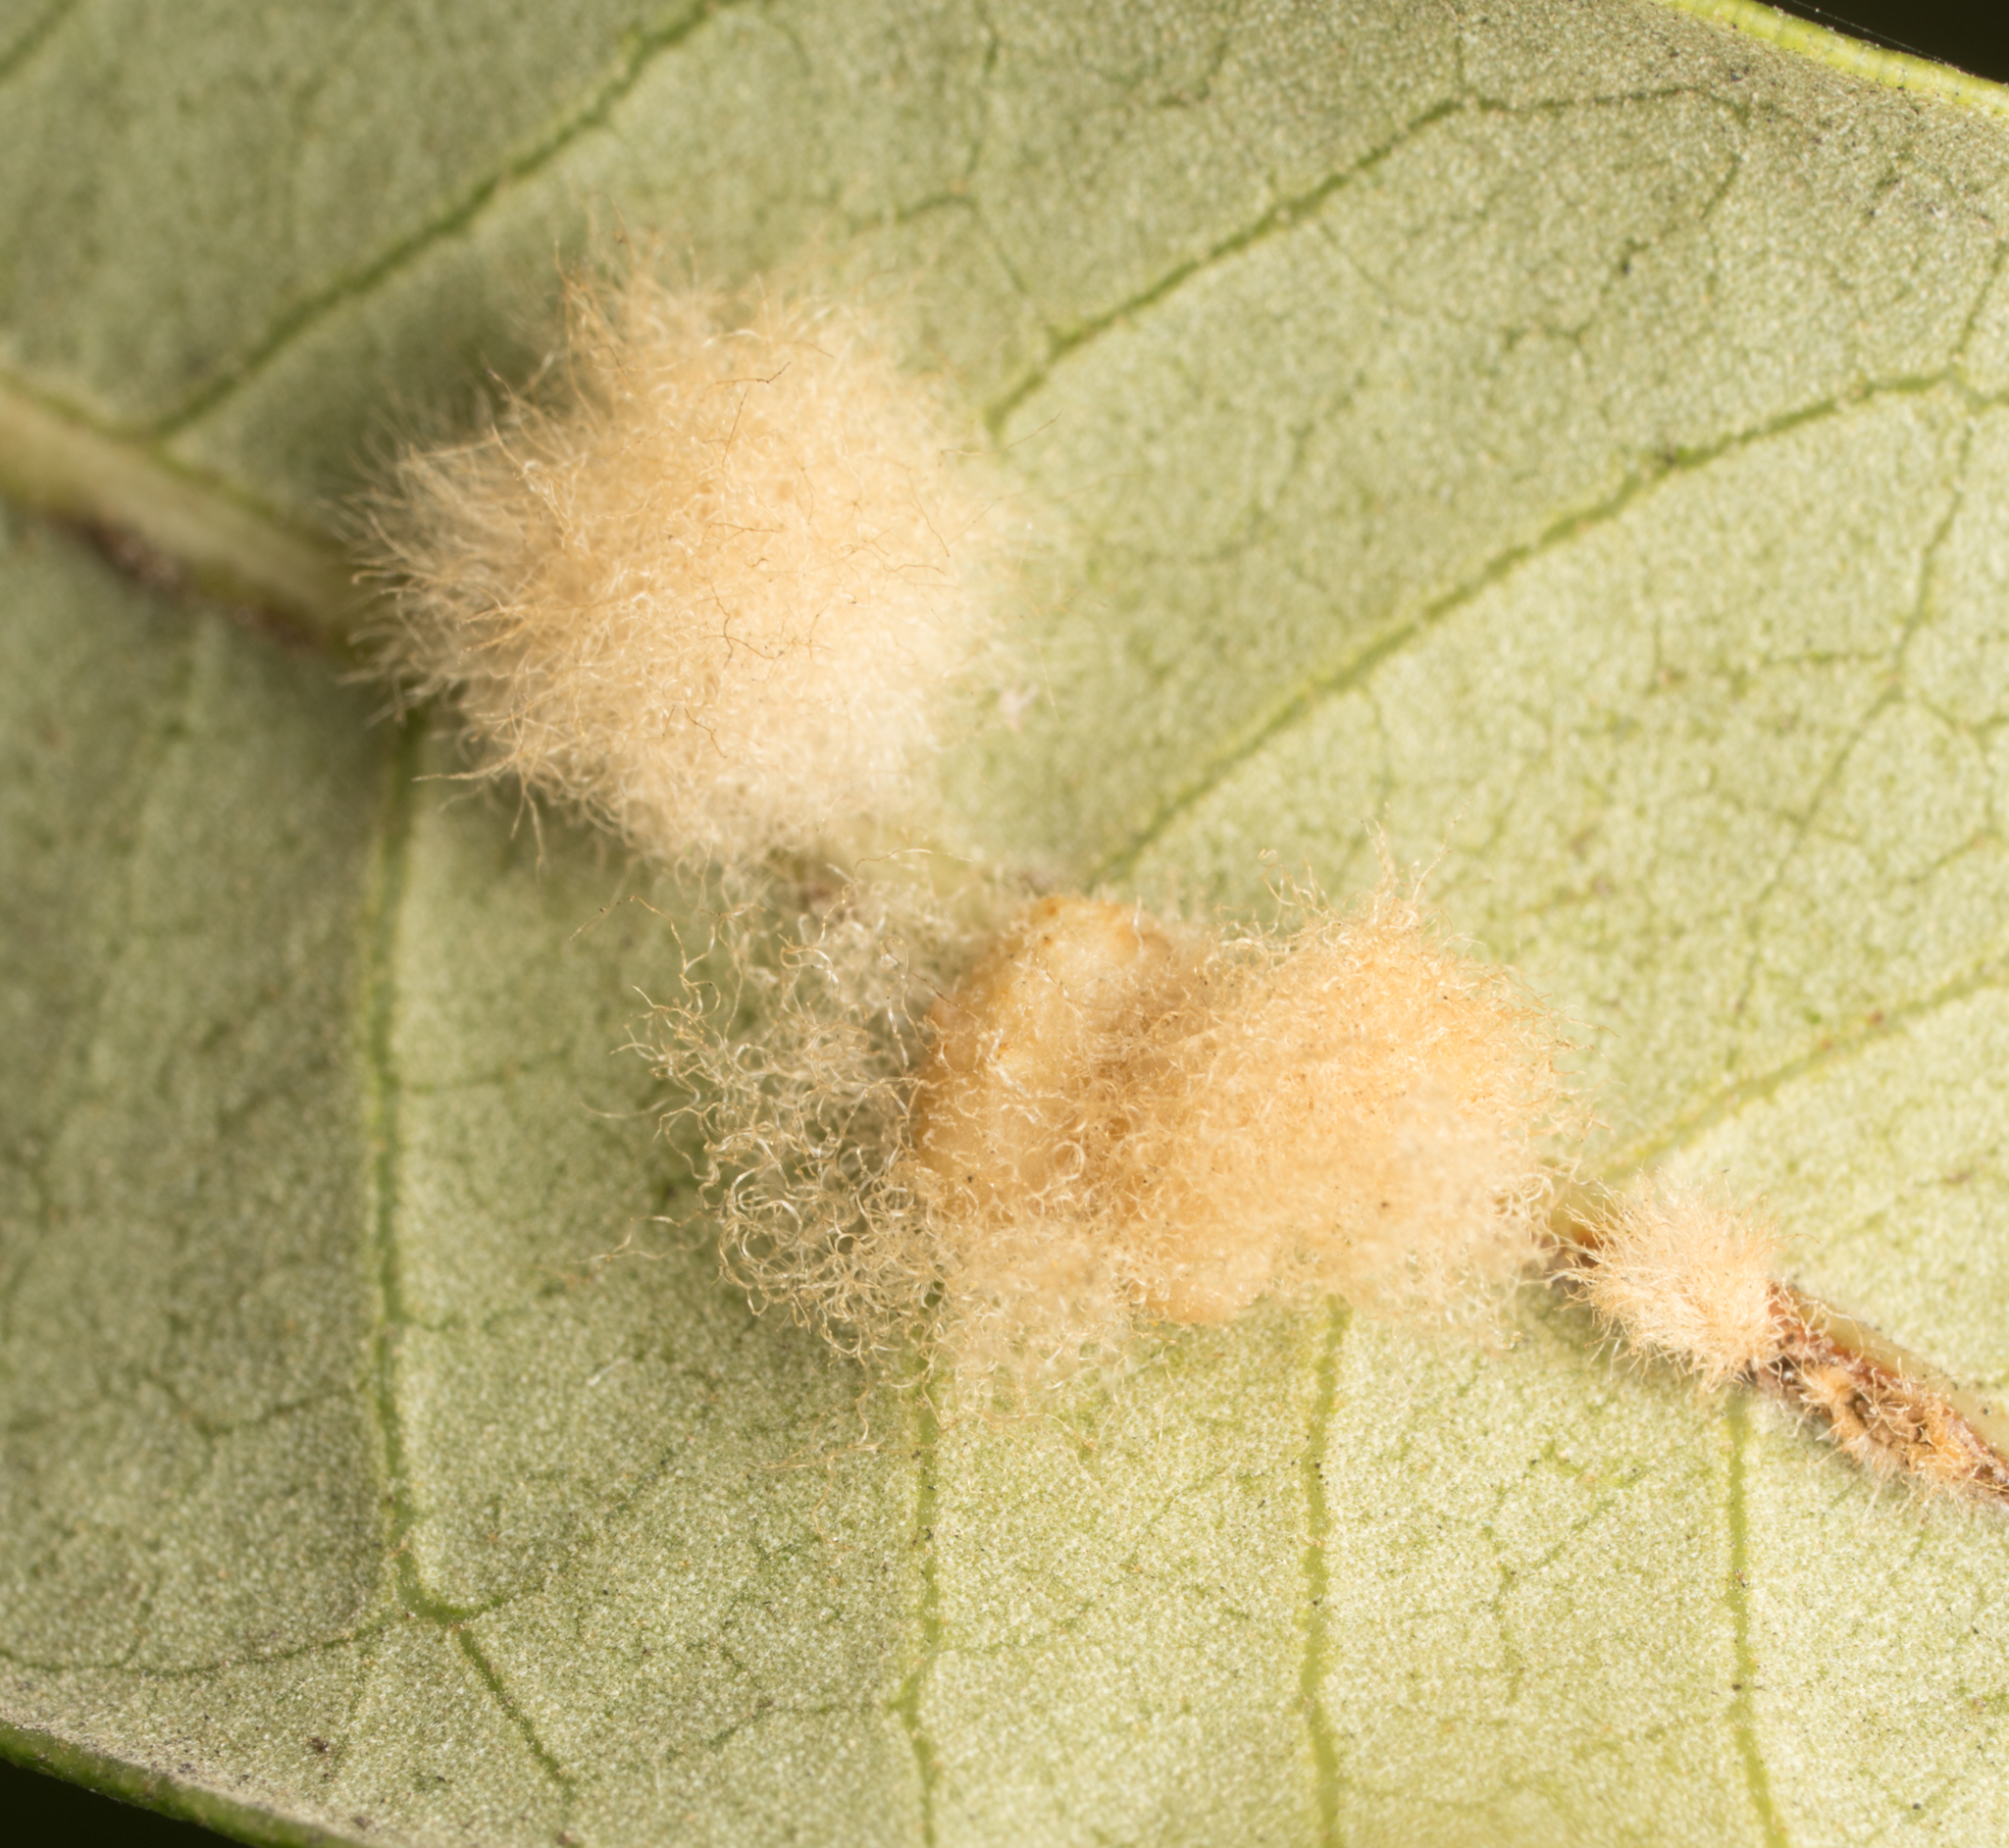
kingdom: Animalia
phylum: Arthropoda
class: Insecta
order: Hymenoptera
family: Cynipidae
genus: Andricus
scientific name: Andricus Druon quercuslanigerum
